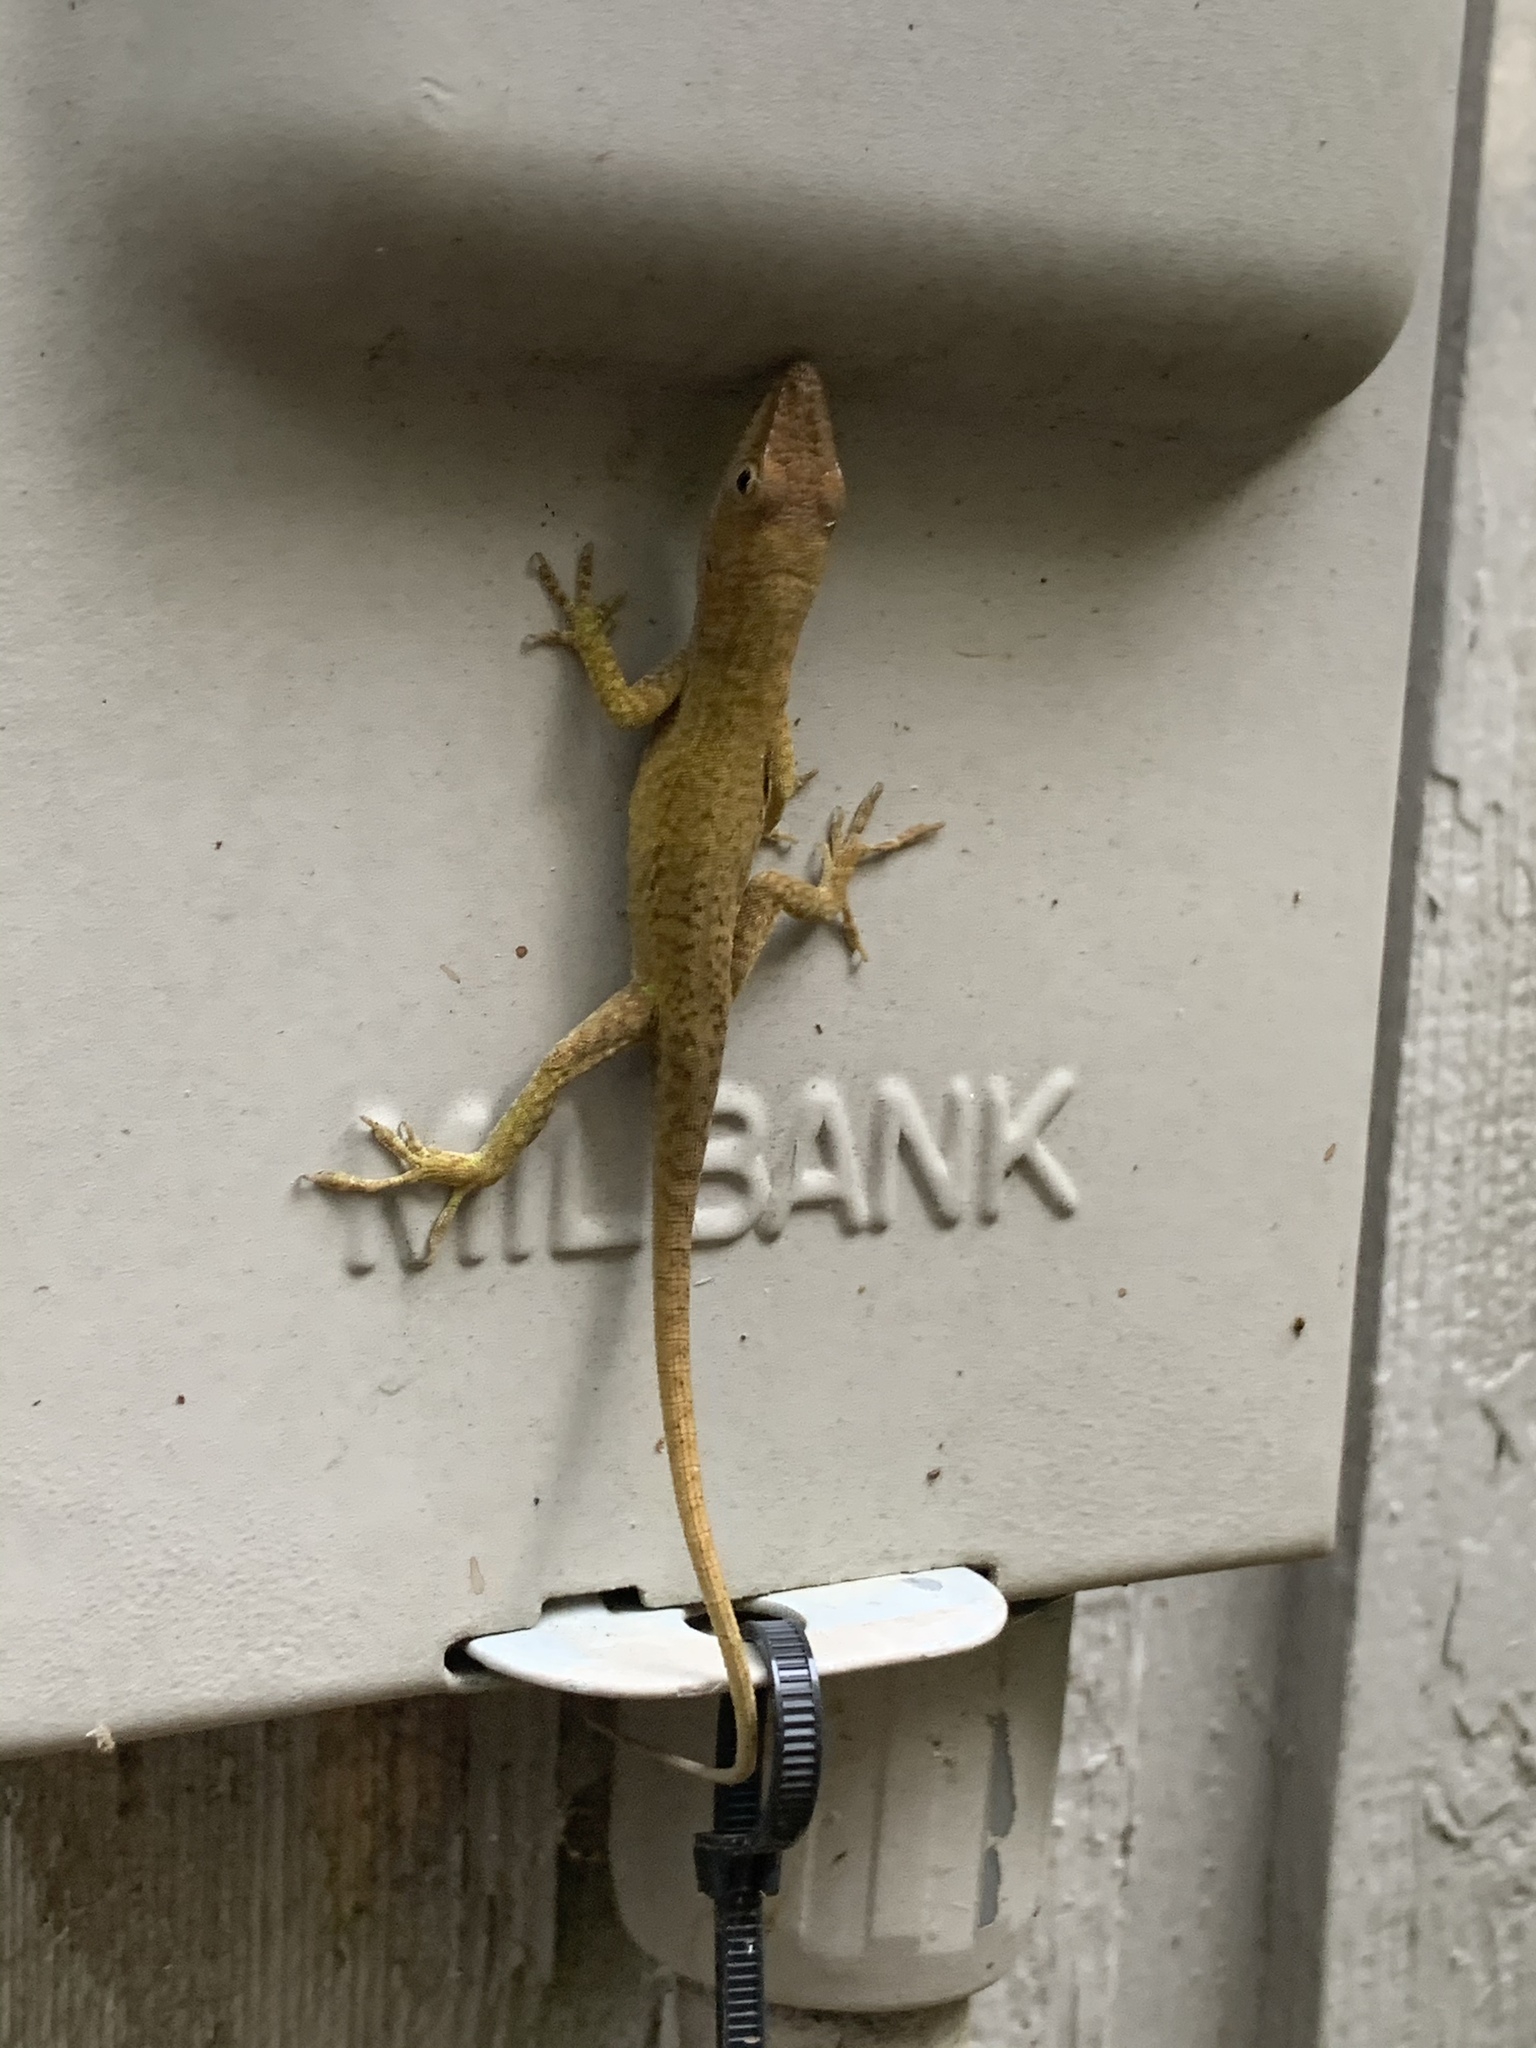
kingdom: Animalia
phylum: Chordata
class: Squamata
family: Dactyloidae
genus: Anolis
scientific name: Anolis carolinensis
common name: Green anole
